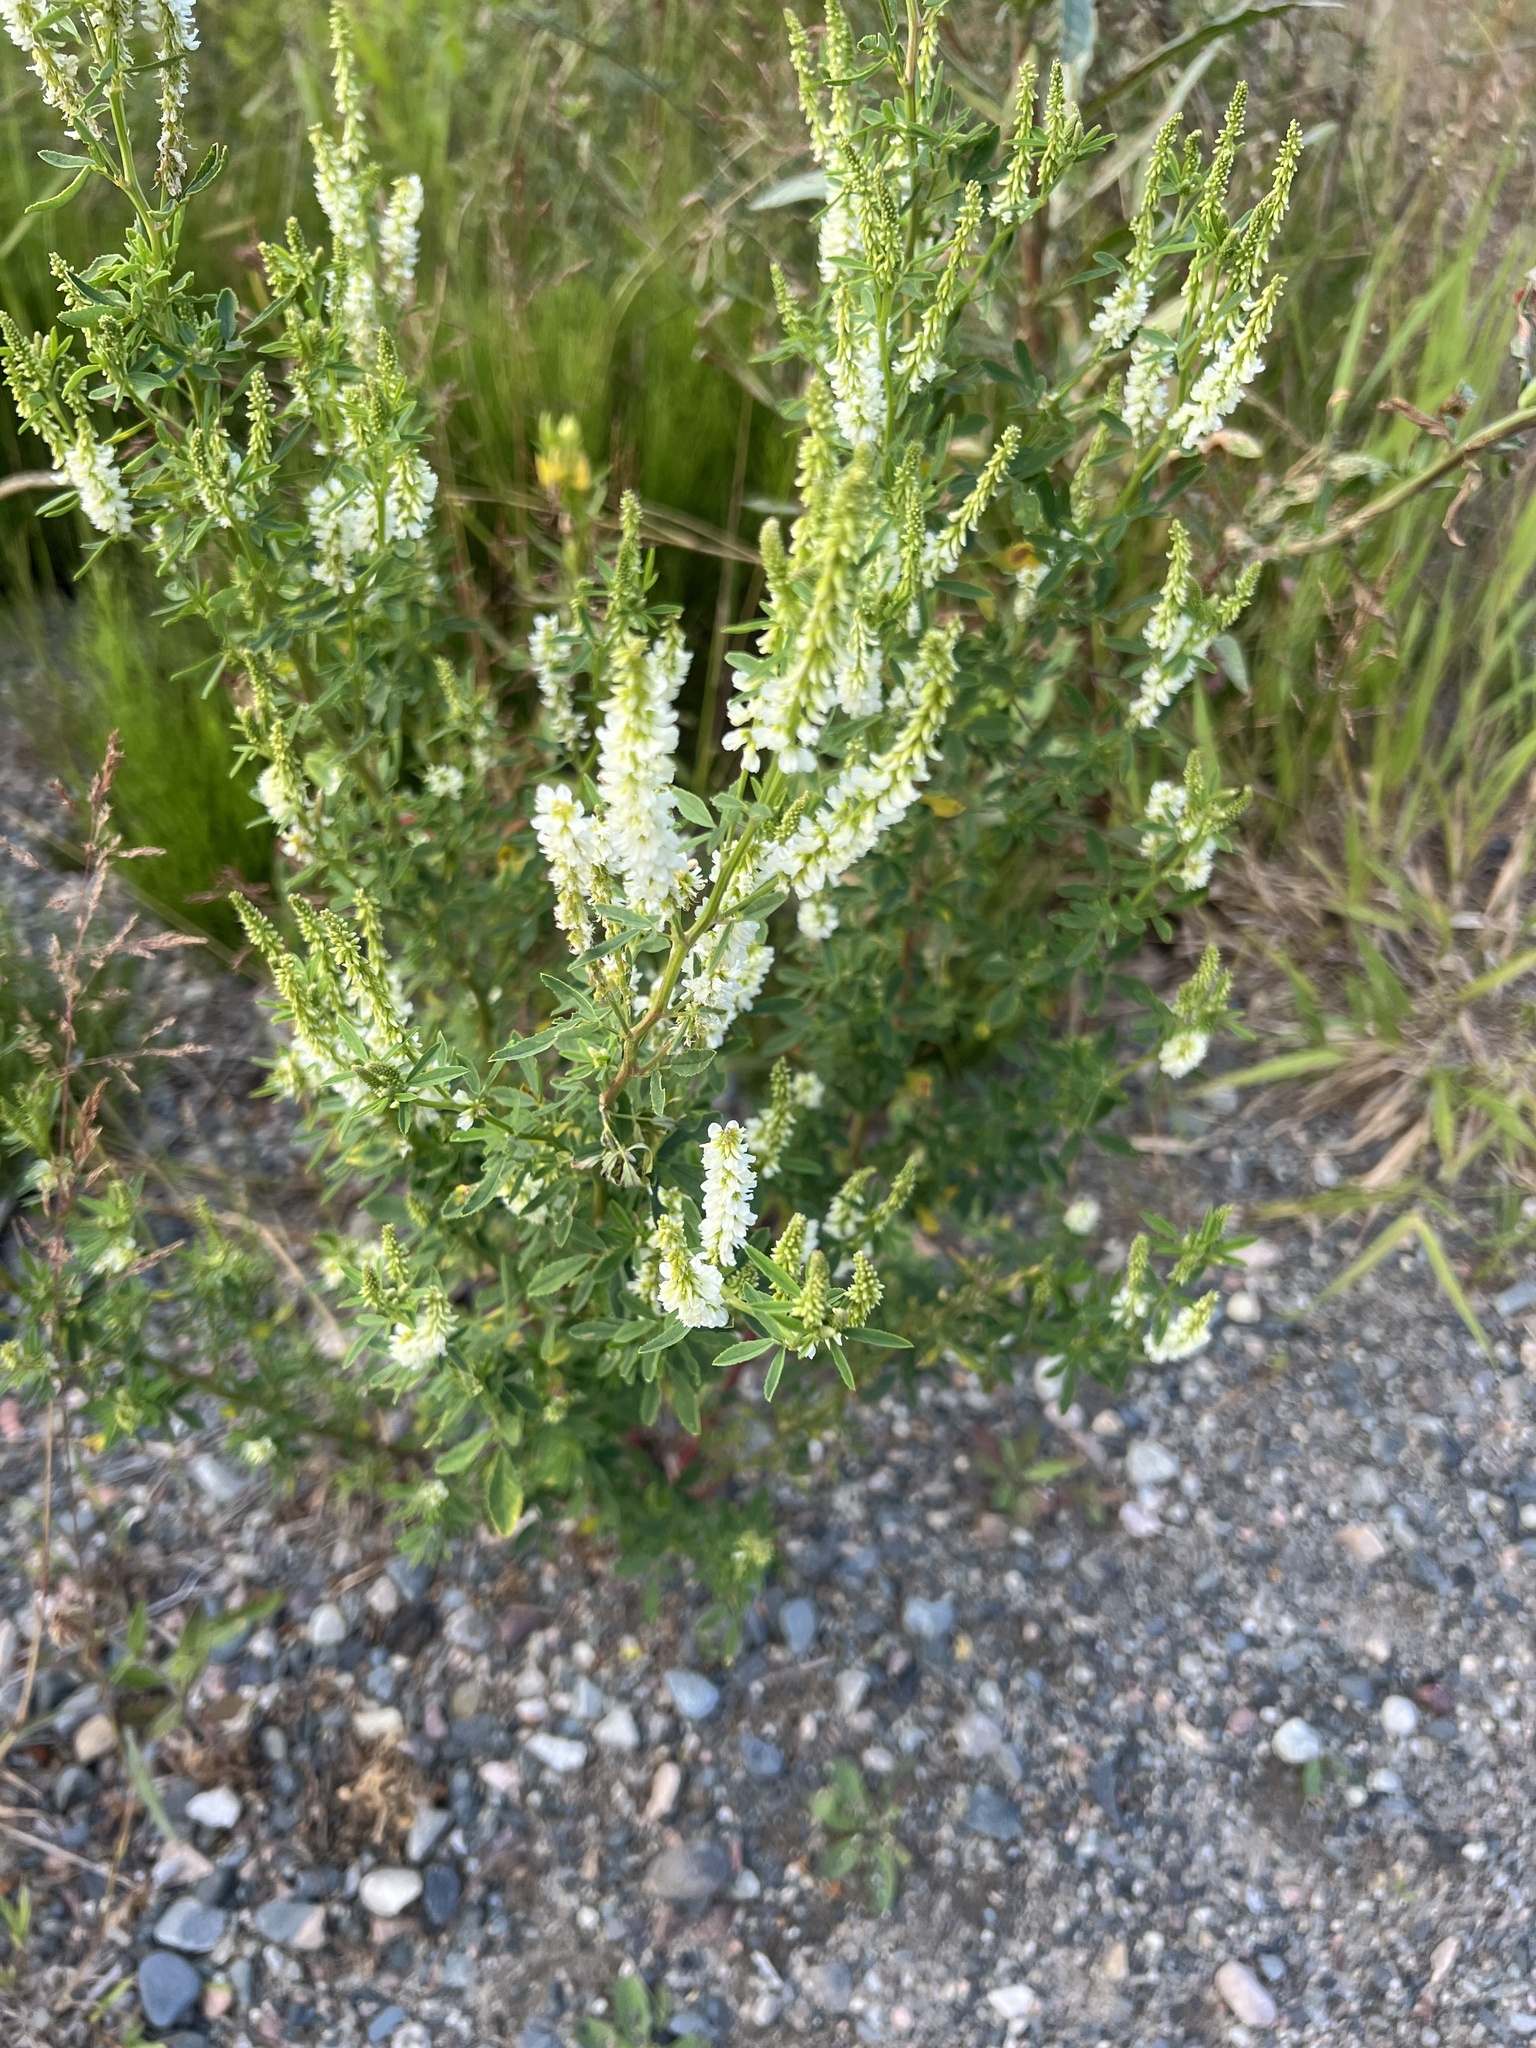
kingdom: Plantae
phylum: Tracheophyta
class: Magnoliopsida
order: Fabales
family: Fabaceae
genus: Melilotus
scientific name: Melilotus albus
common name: White melilot
